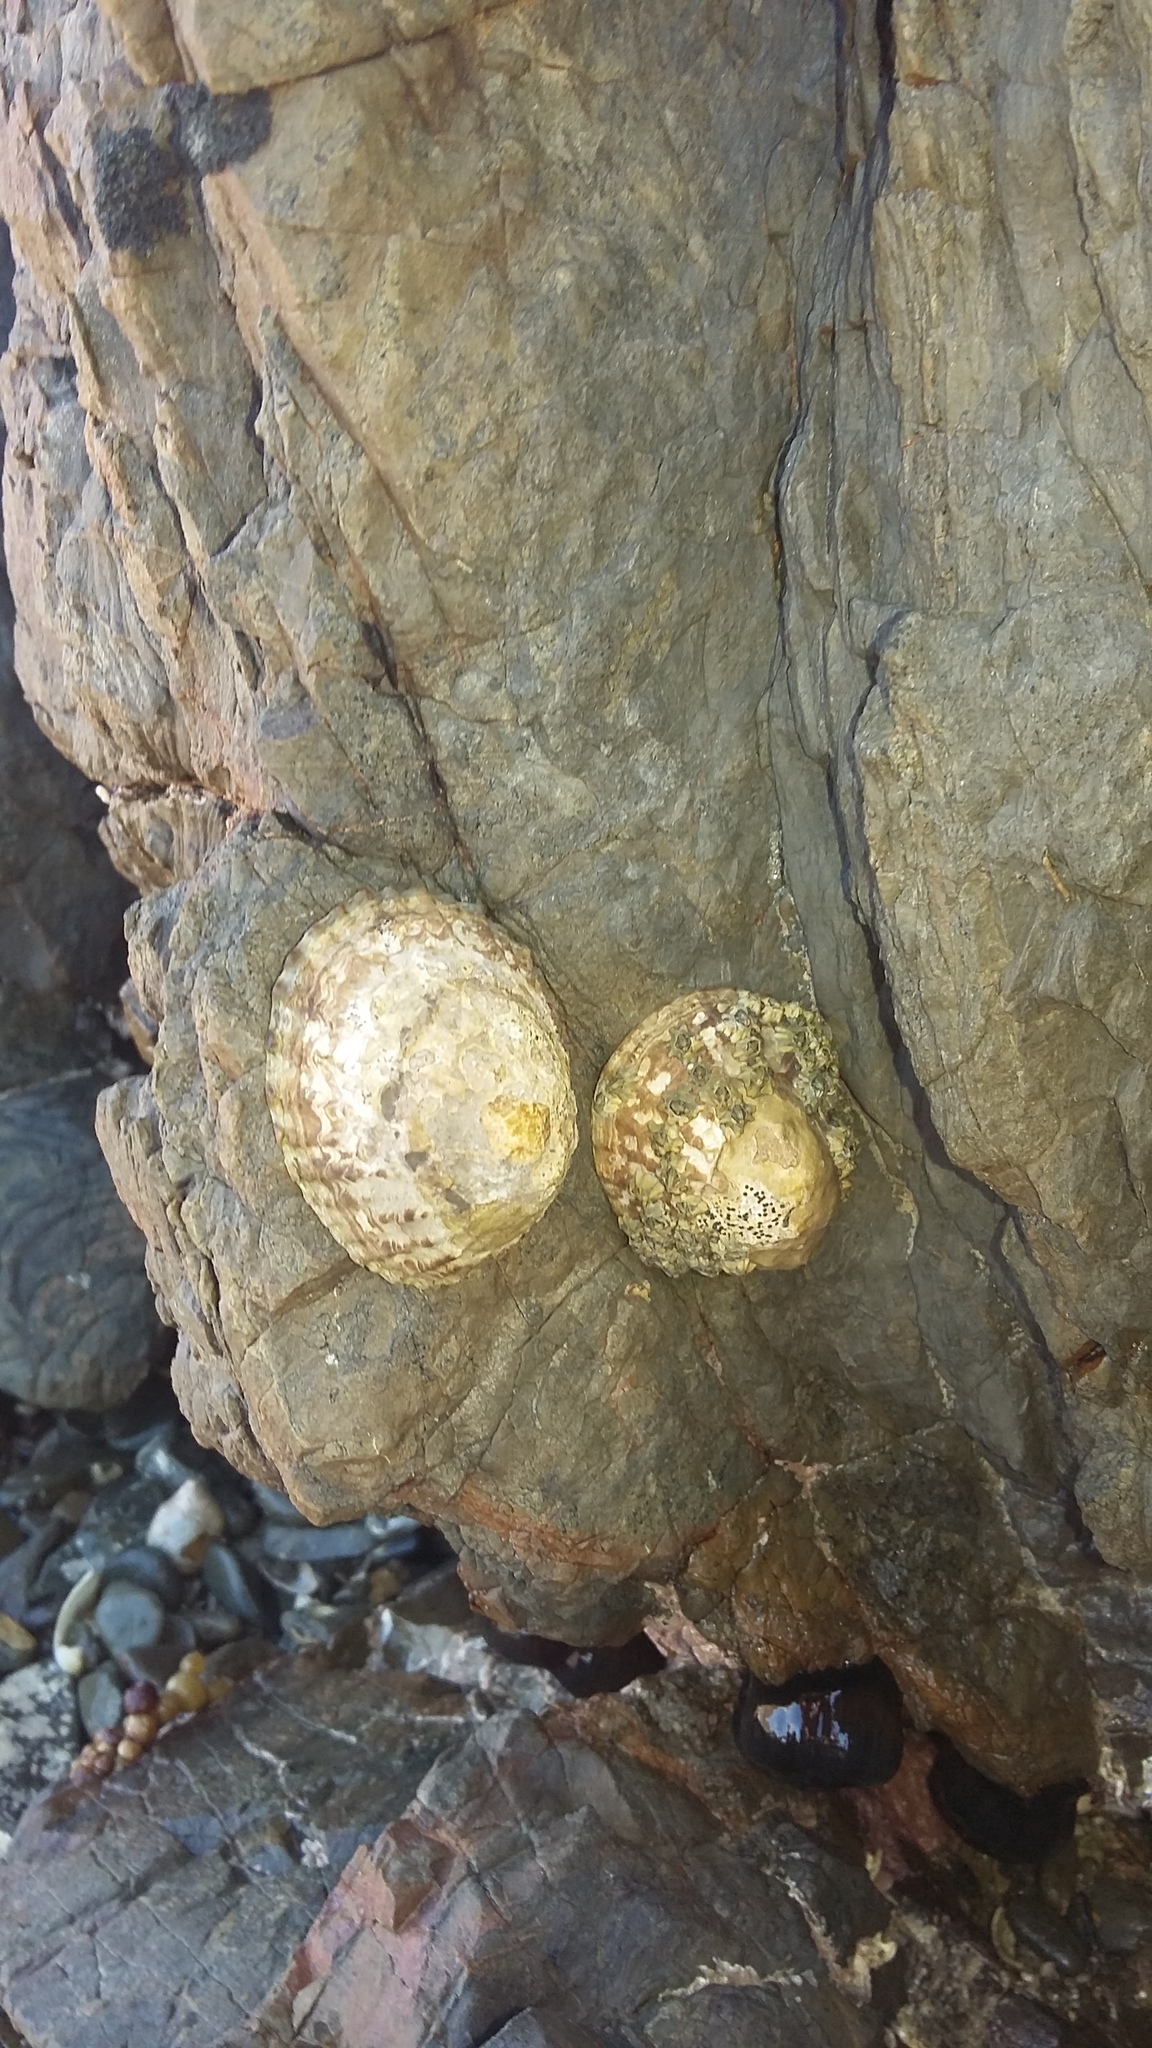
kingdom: Animalia
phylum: Mollusca
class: Gastropoda
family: Nacellidae
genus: Cellana
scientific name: Cellana denticulata
